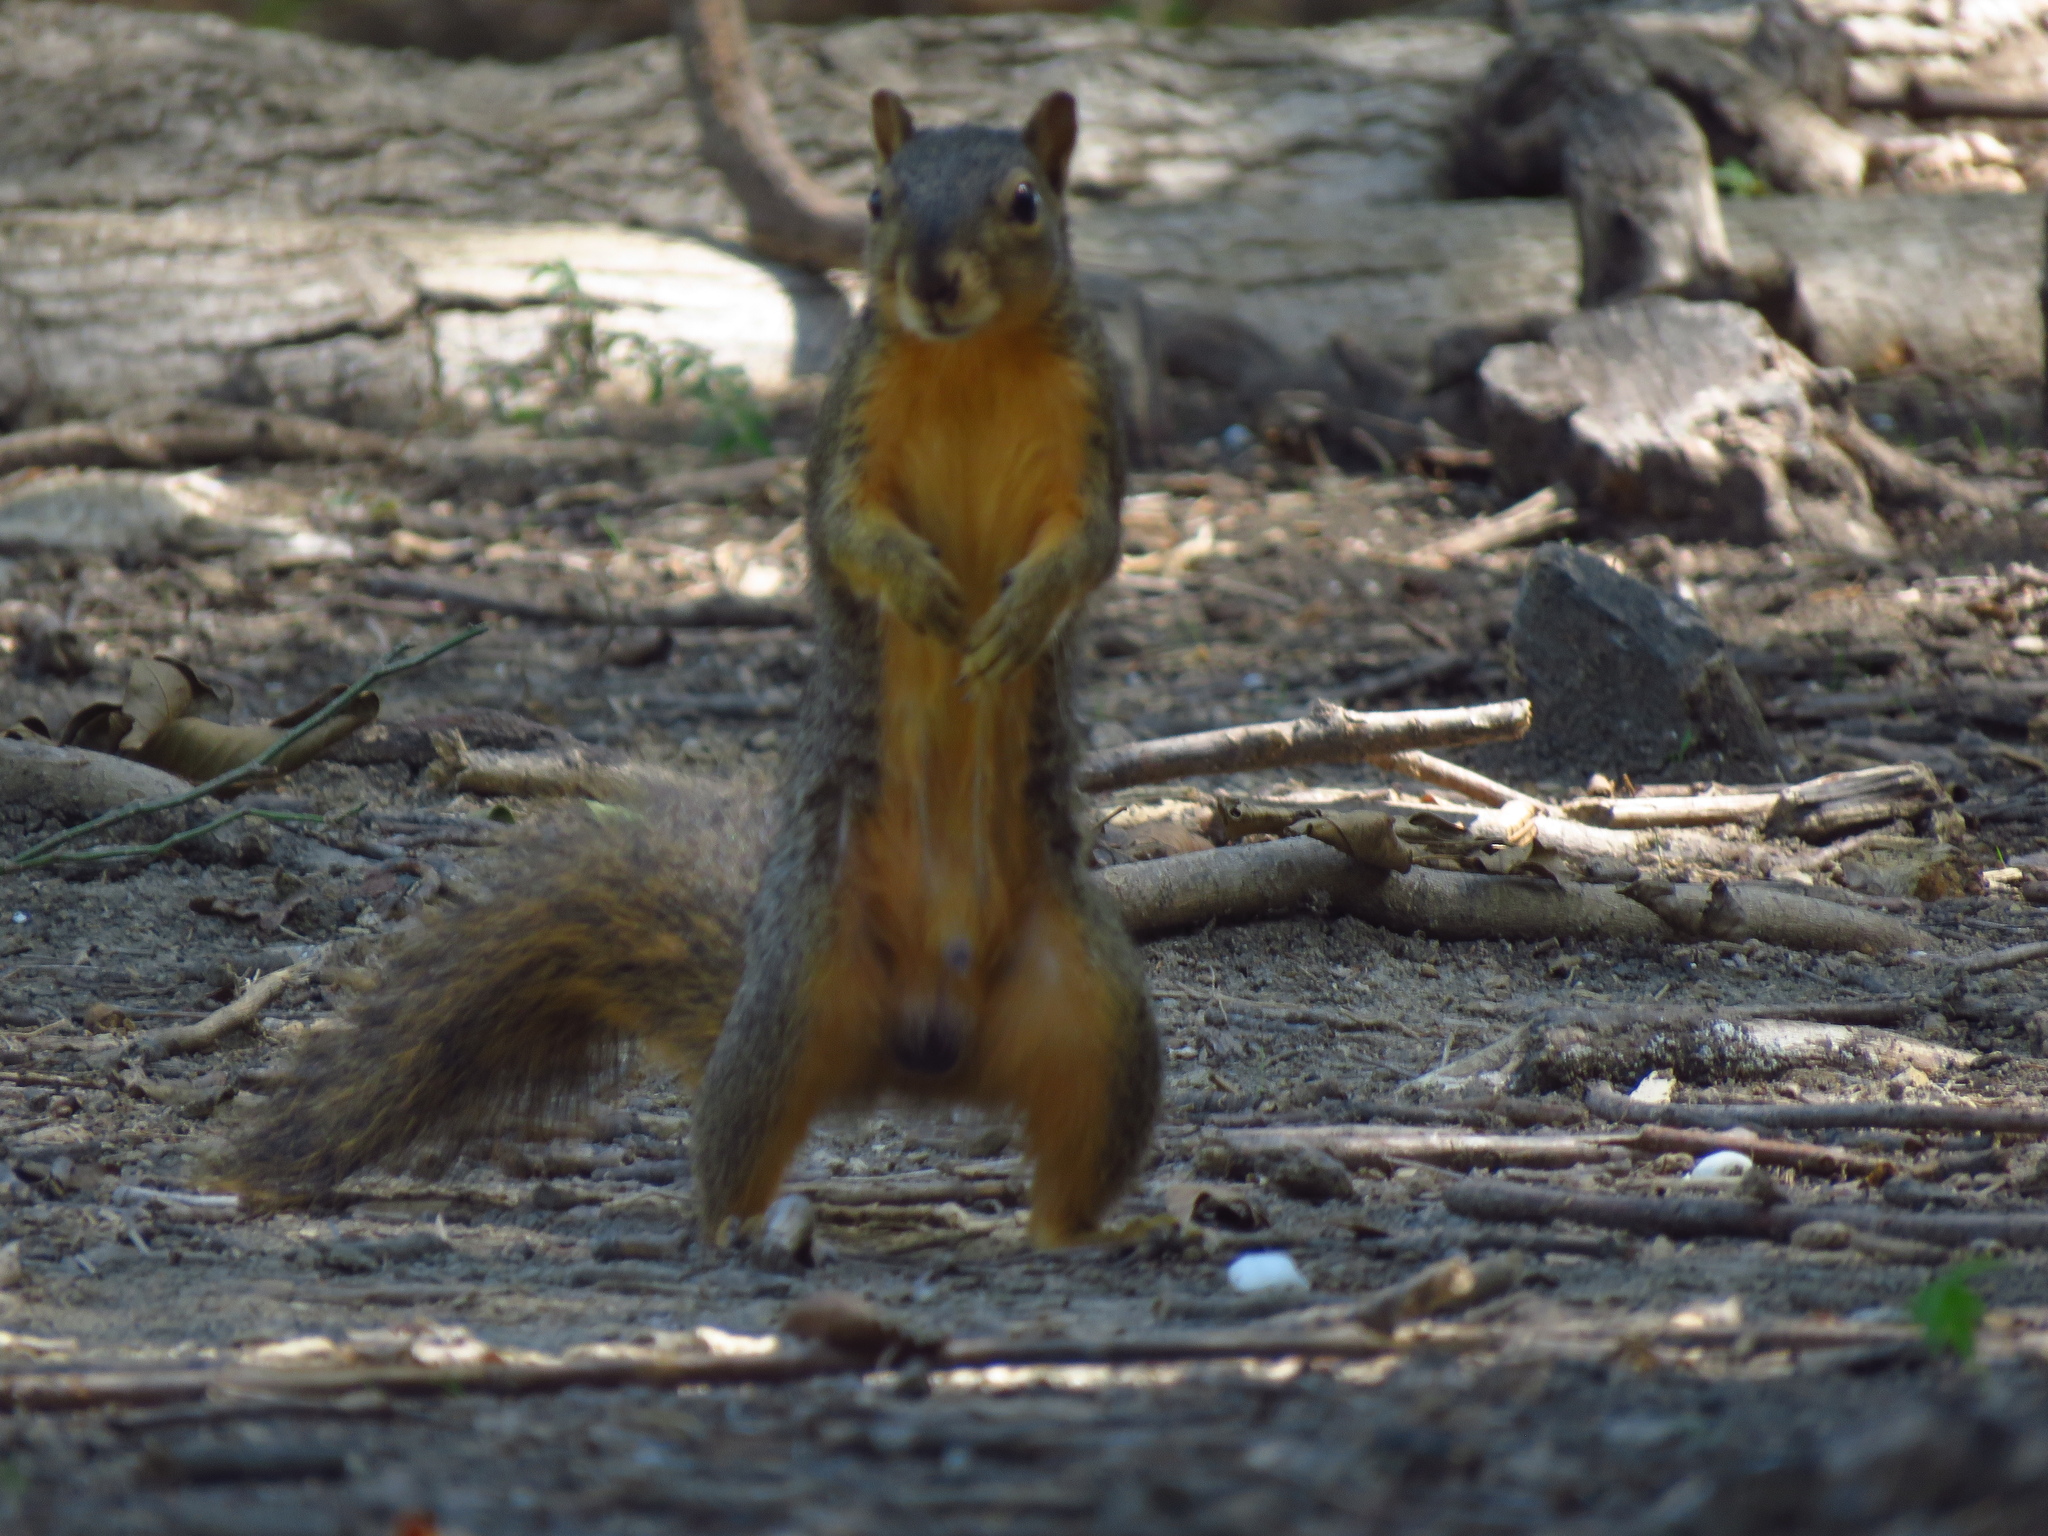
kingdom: Animalia
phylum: Chordata
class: Mammalia
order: Rodentia
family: Sciuridae
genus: Sciurus
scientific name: Sciurus niger
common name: Fox squirrel
